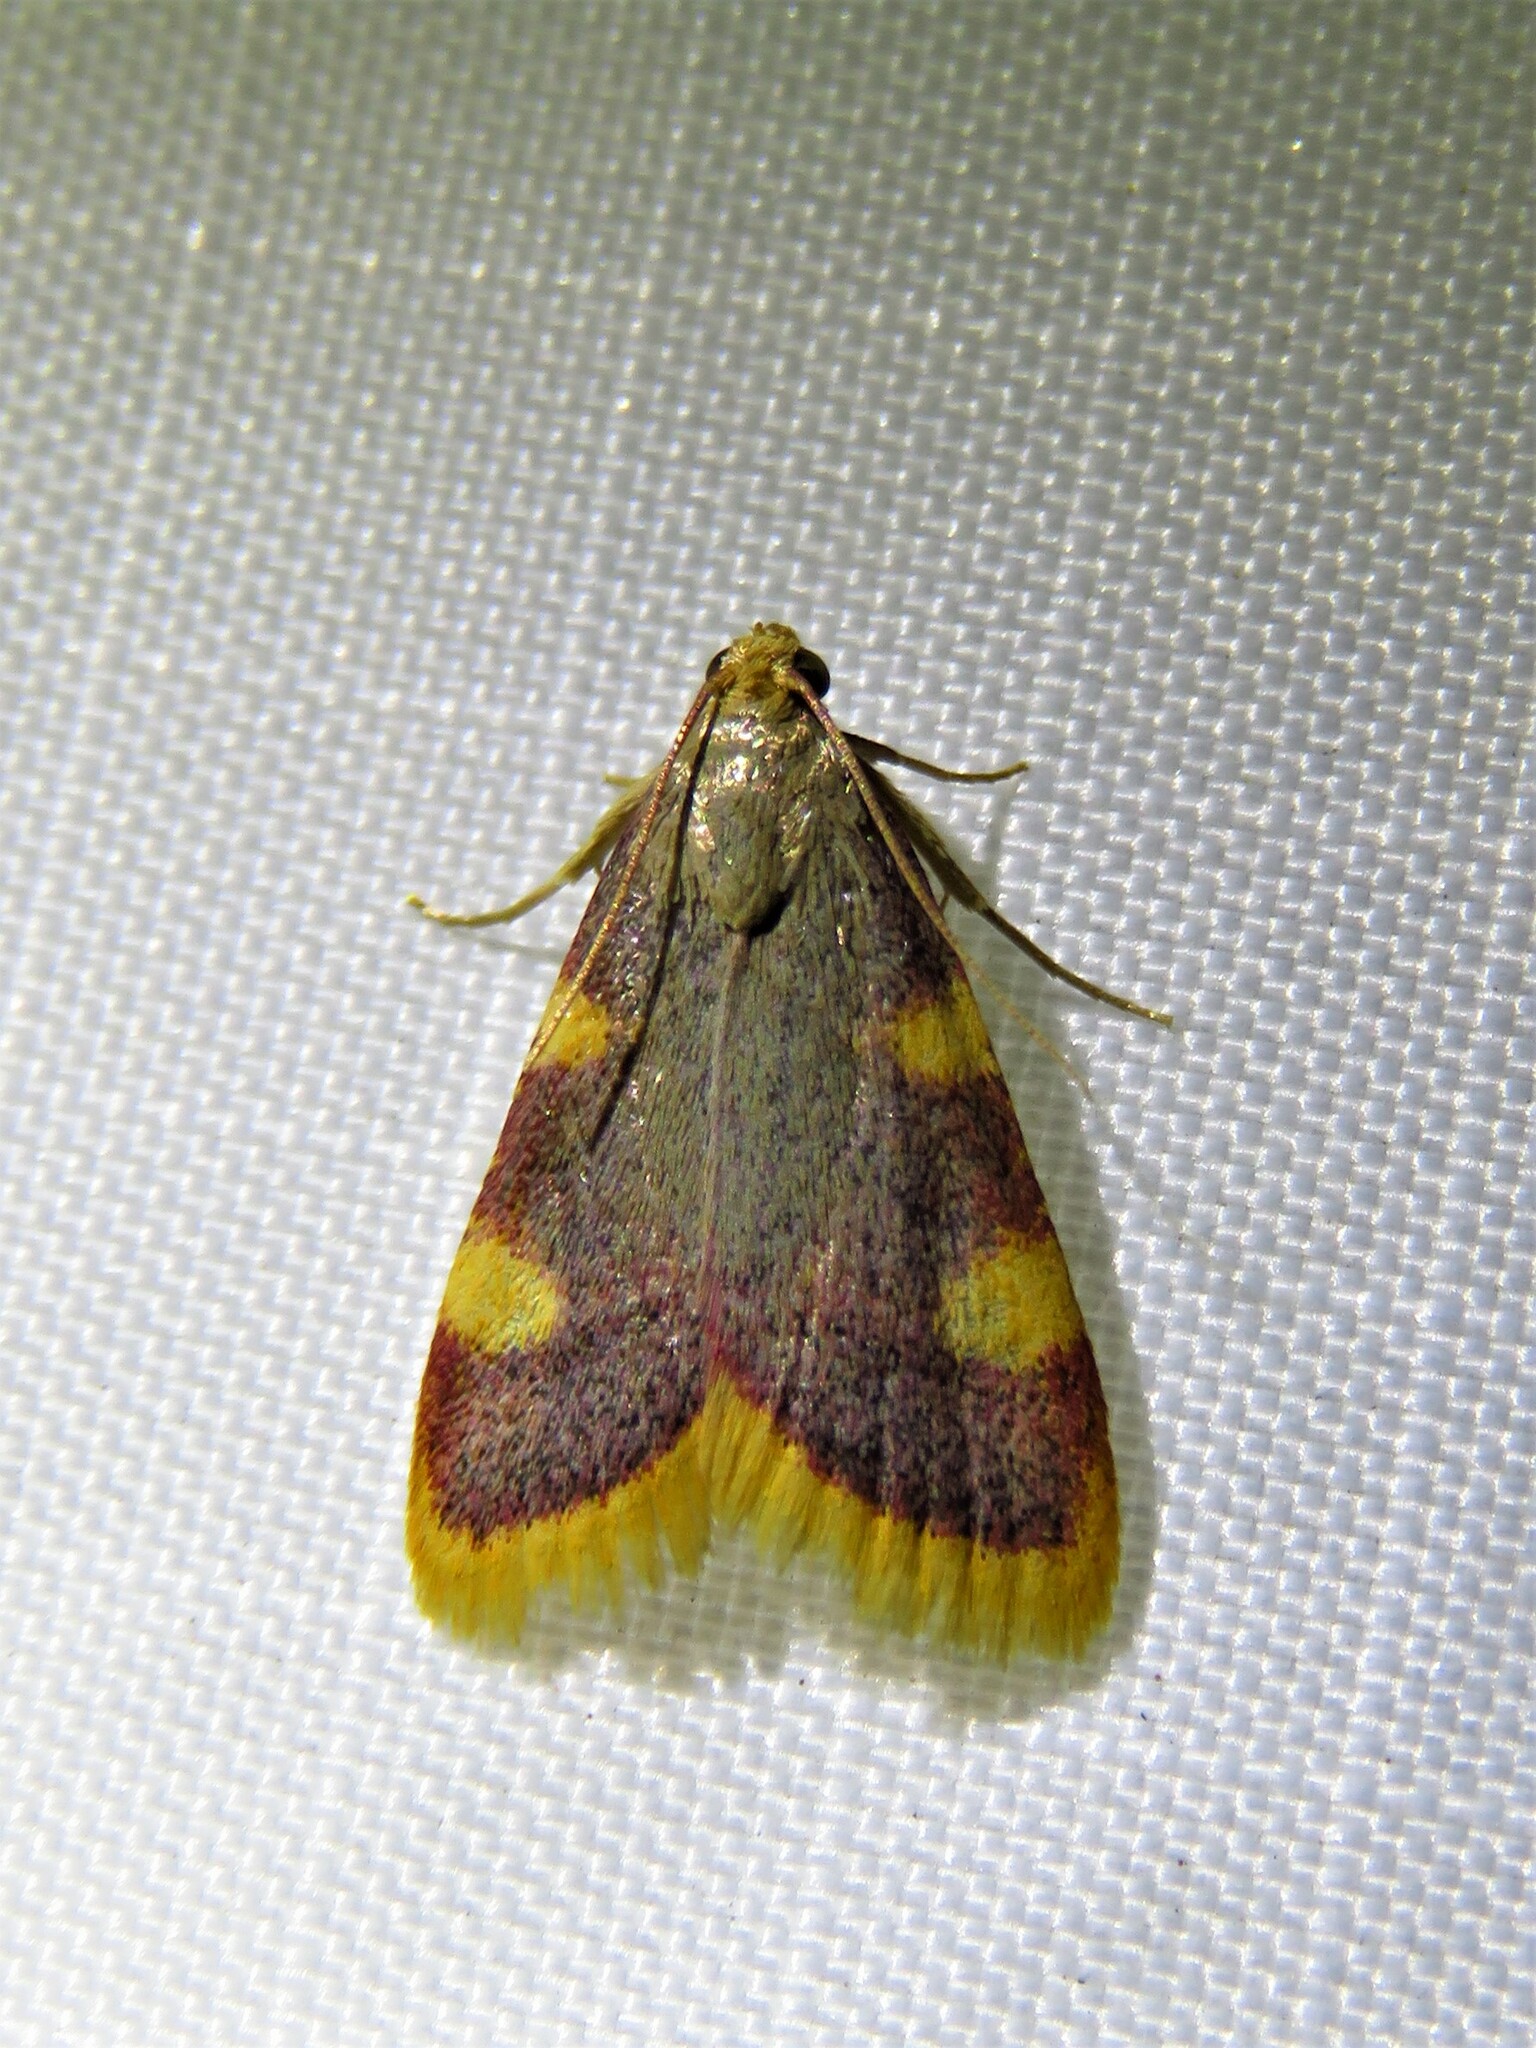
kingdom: Animalia
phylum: Arthropoda
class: Insecta
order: Lepidoptera
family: Pyralidae
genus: Hypsopygia
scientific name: Hypsopygia costalis
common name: Gold triangle
